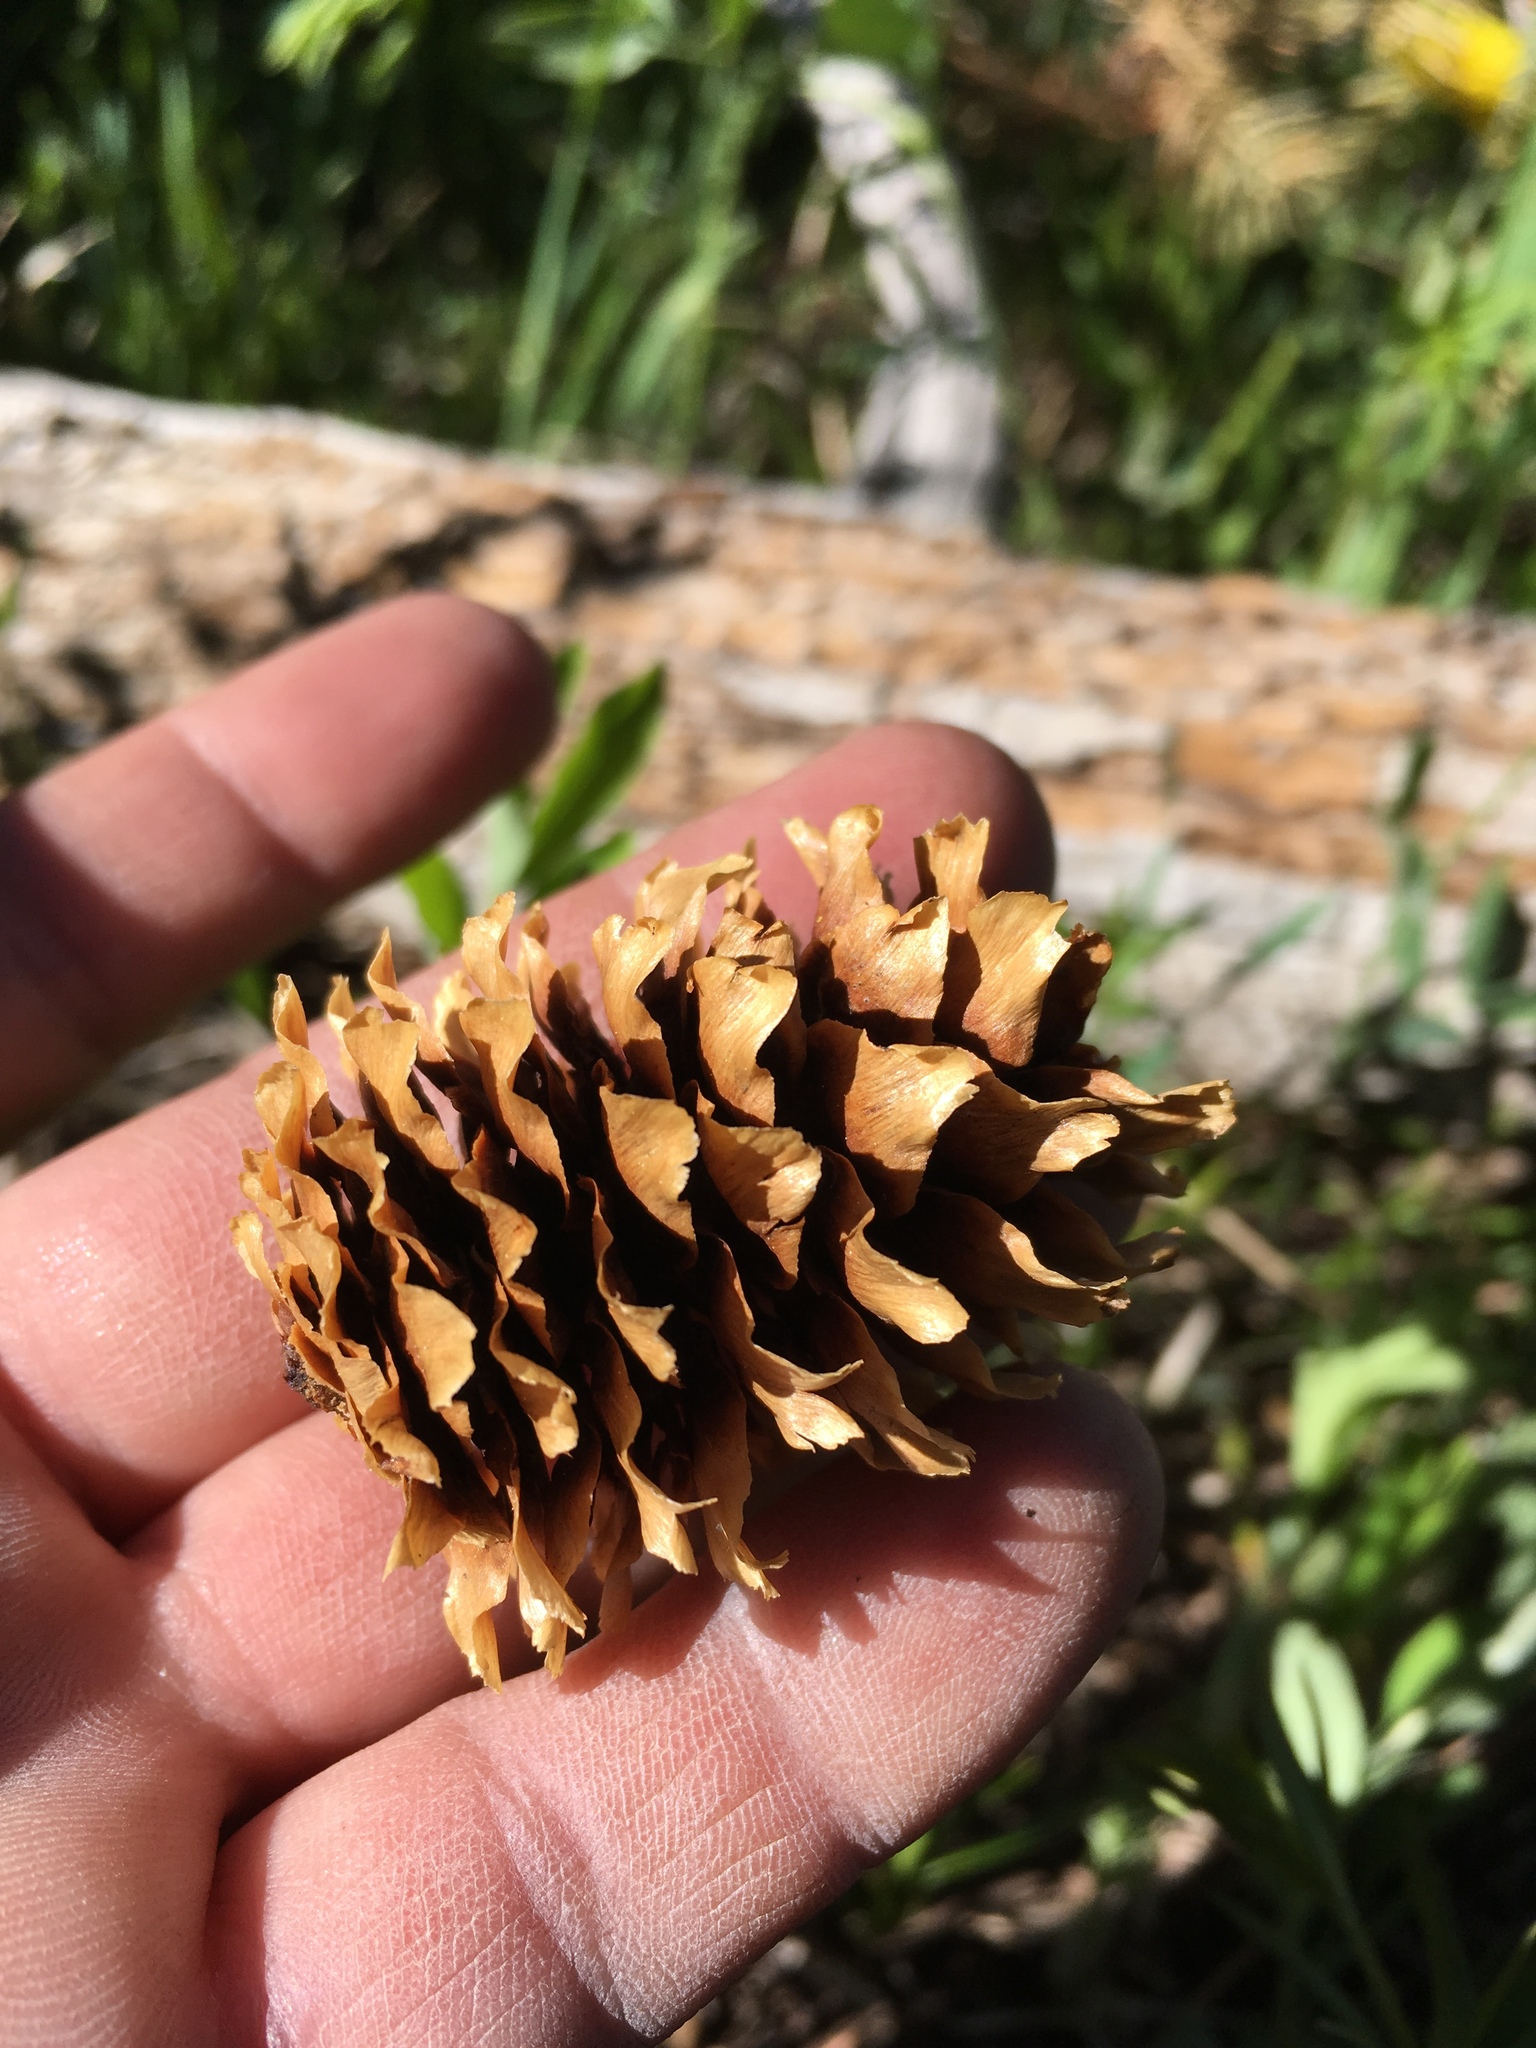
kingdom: Plantae
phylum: Tracheophyta
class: Pinopsida
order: Pinales
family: Pinaceae
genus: Picea
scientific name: Picea engelmannii
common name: Engelmann spruce
